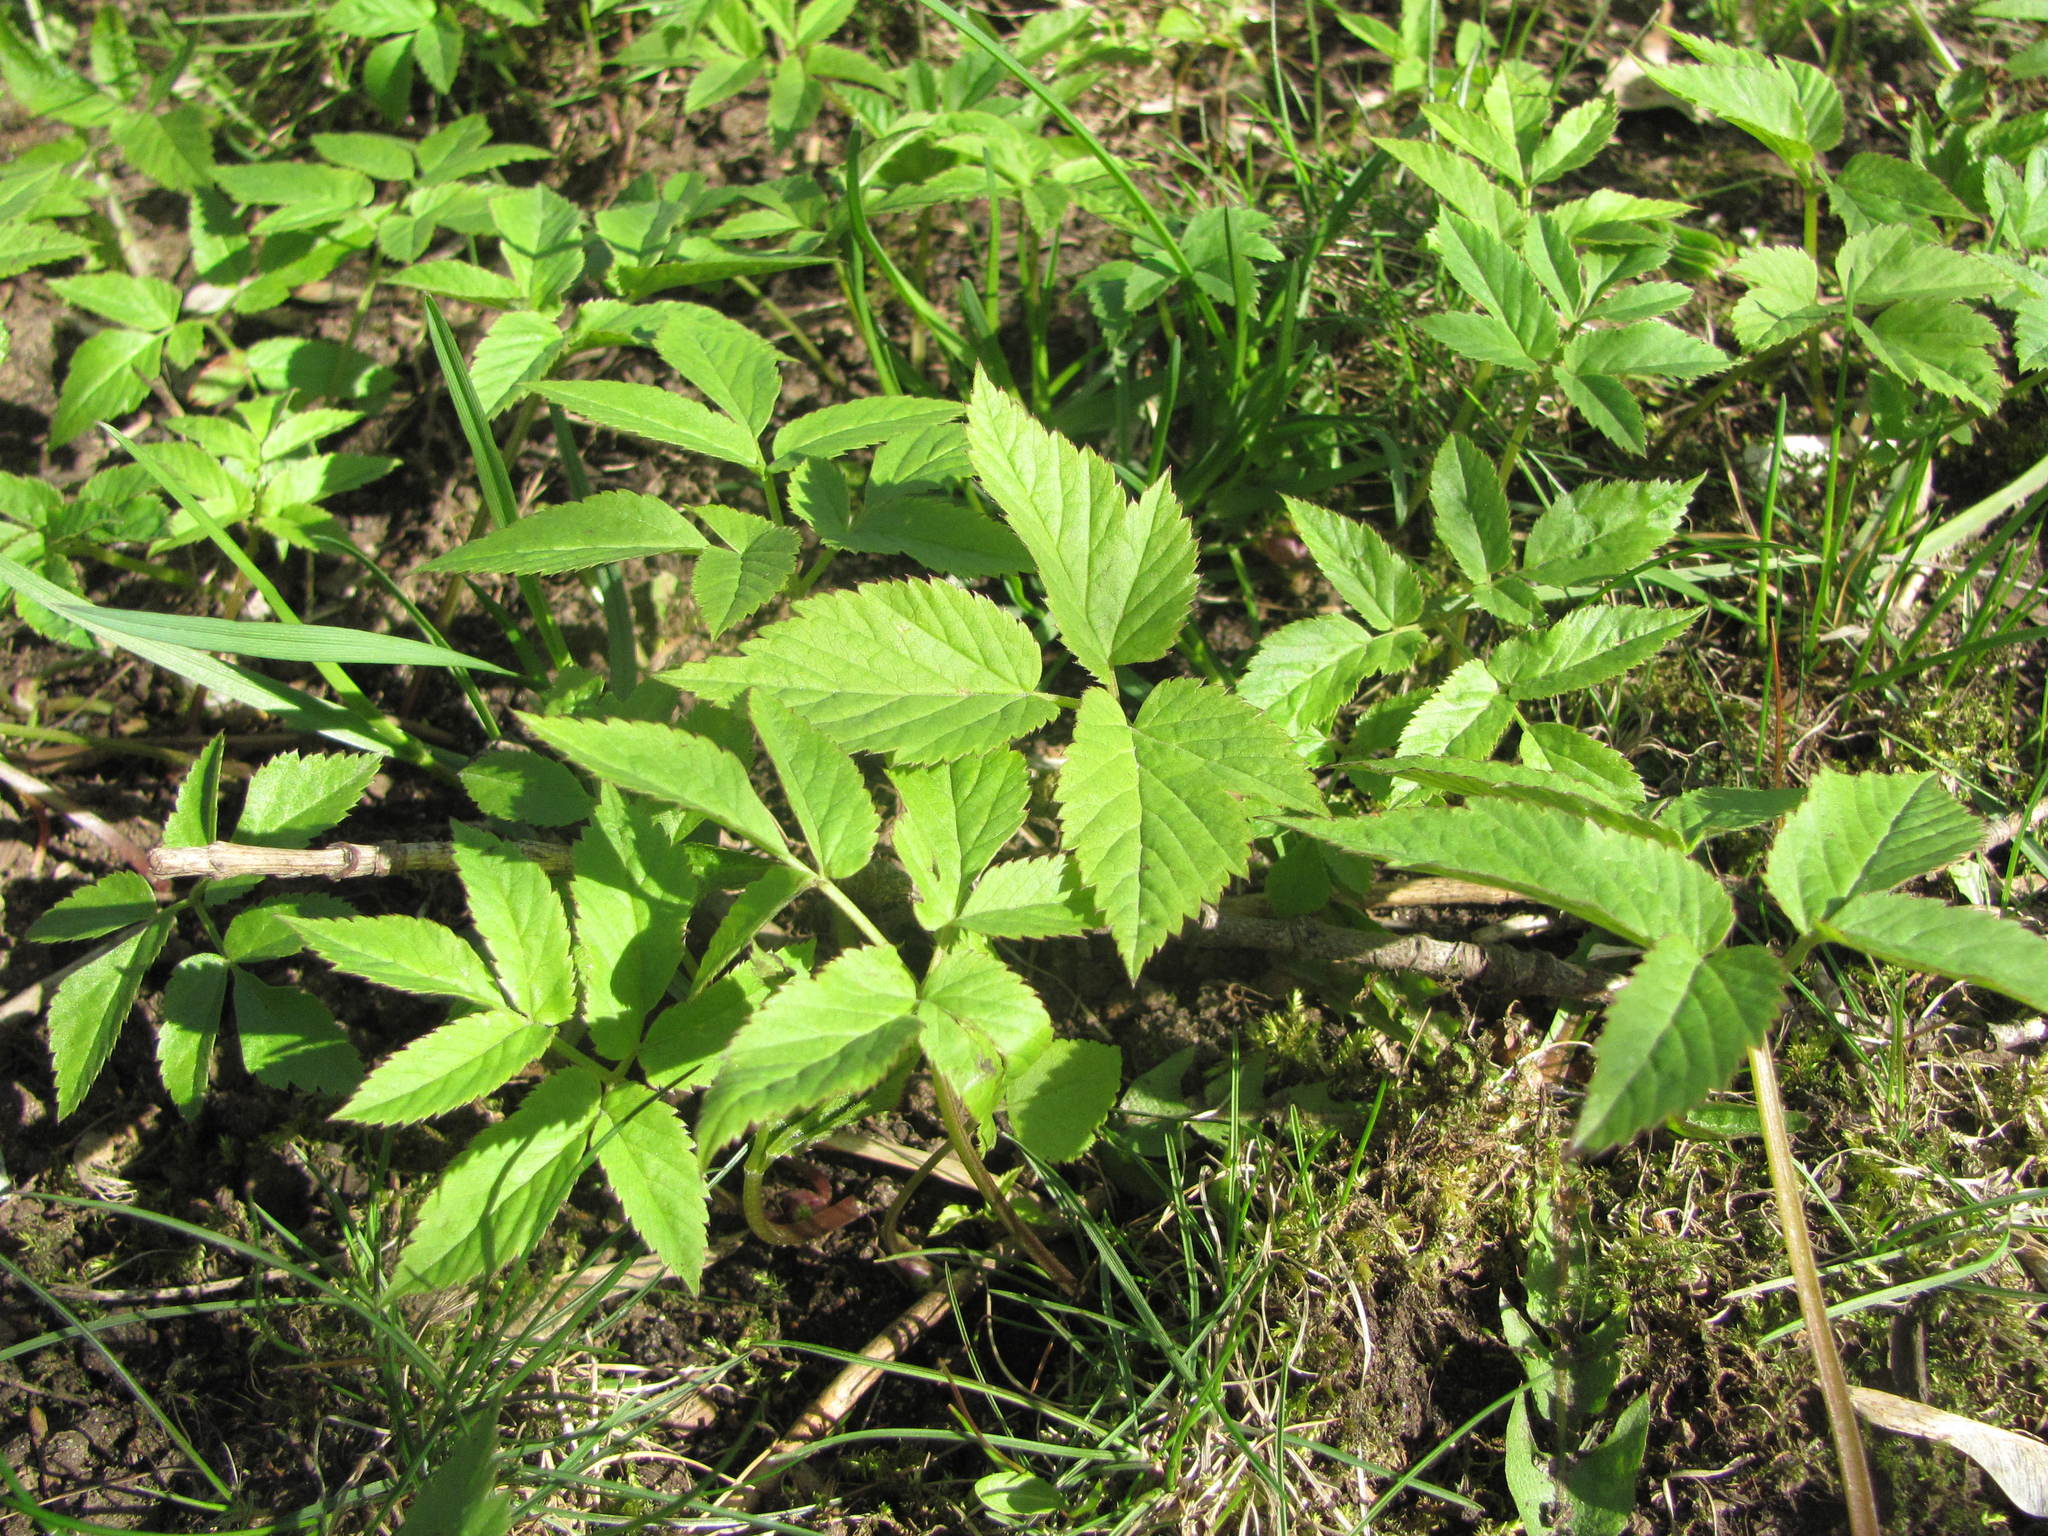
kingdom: Plantae
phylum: Tracheophyta
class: Magnoliopsida
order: Apiales
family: Apiaceae
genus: Aegopodium
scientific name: Aegopodium podagraria
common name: Ground-elder
